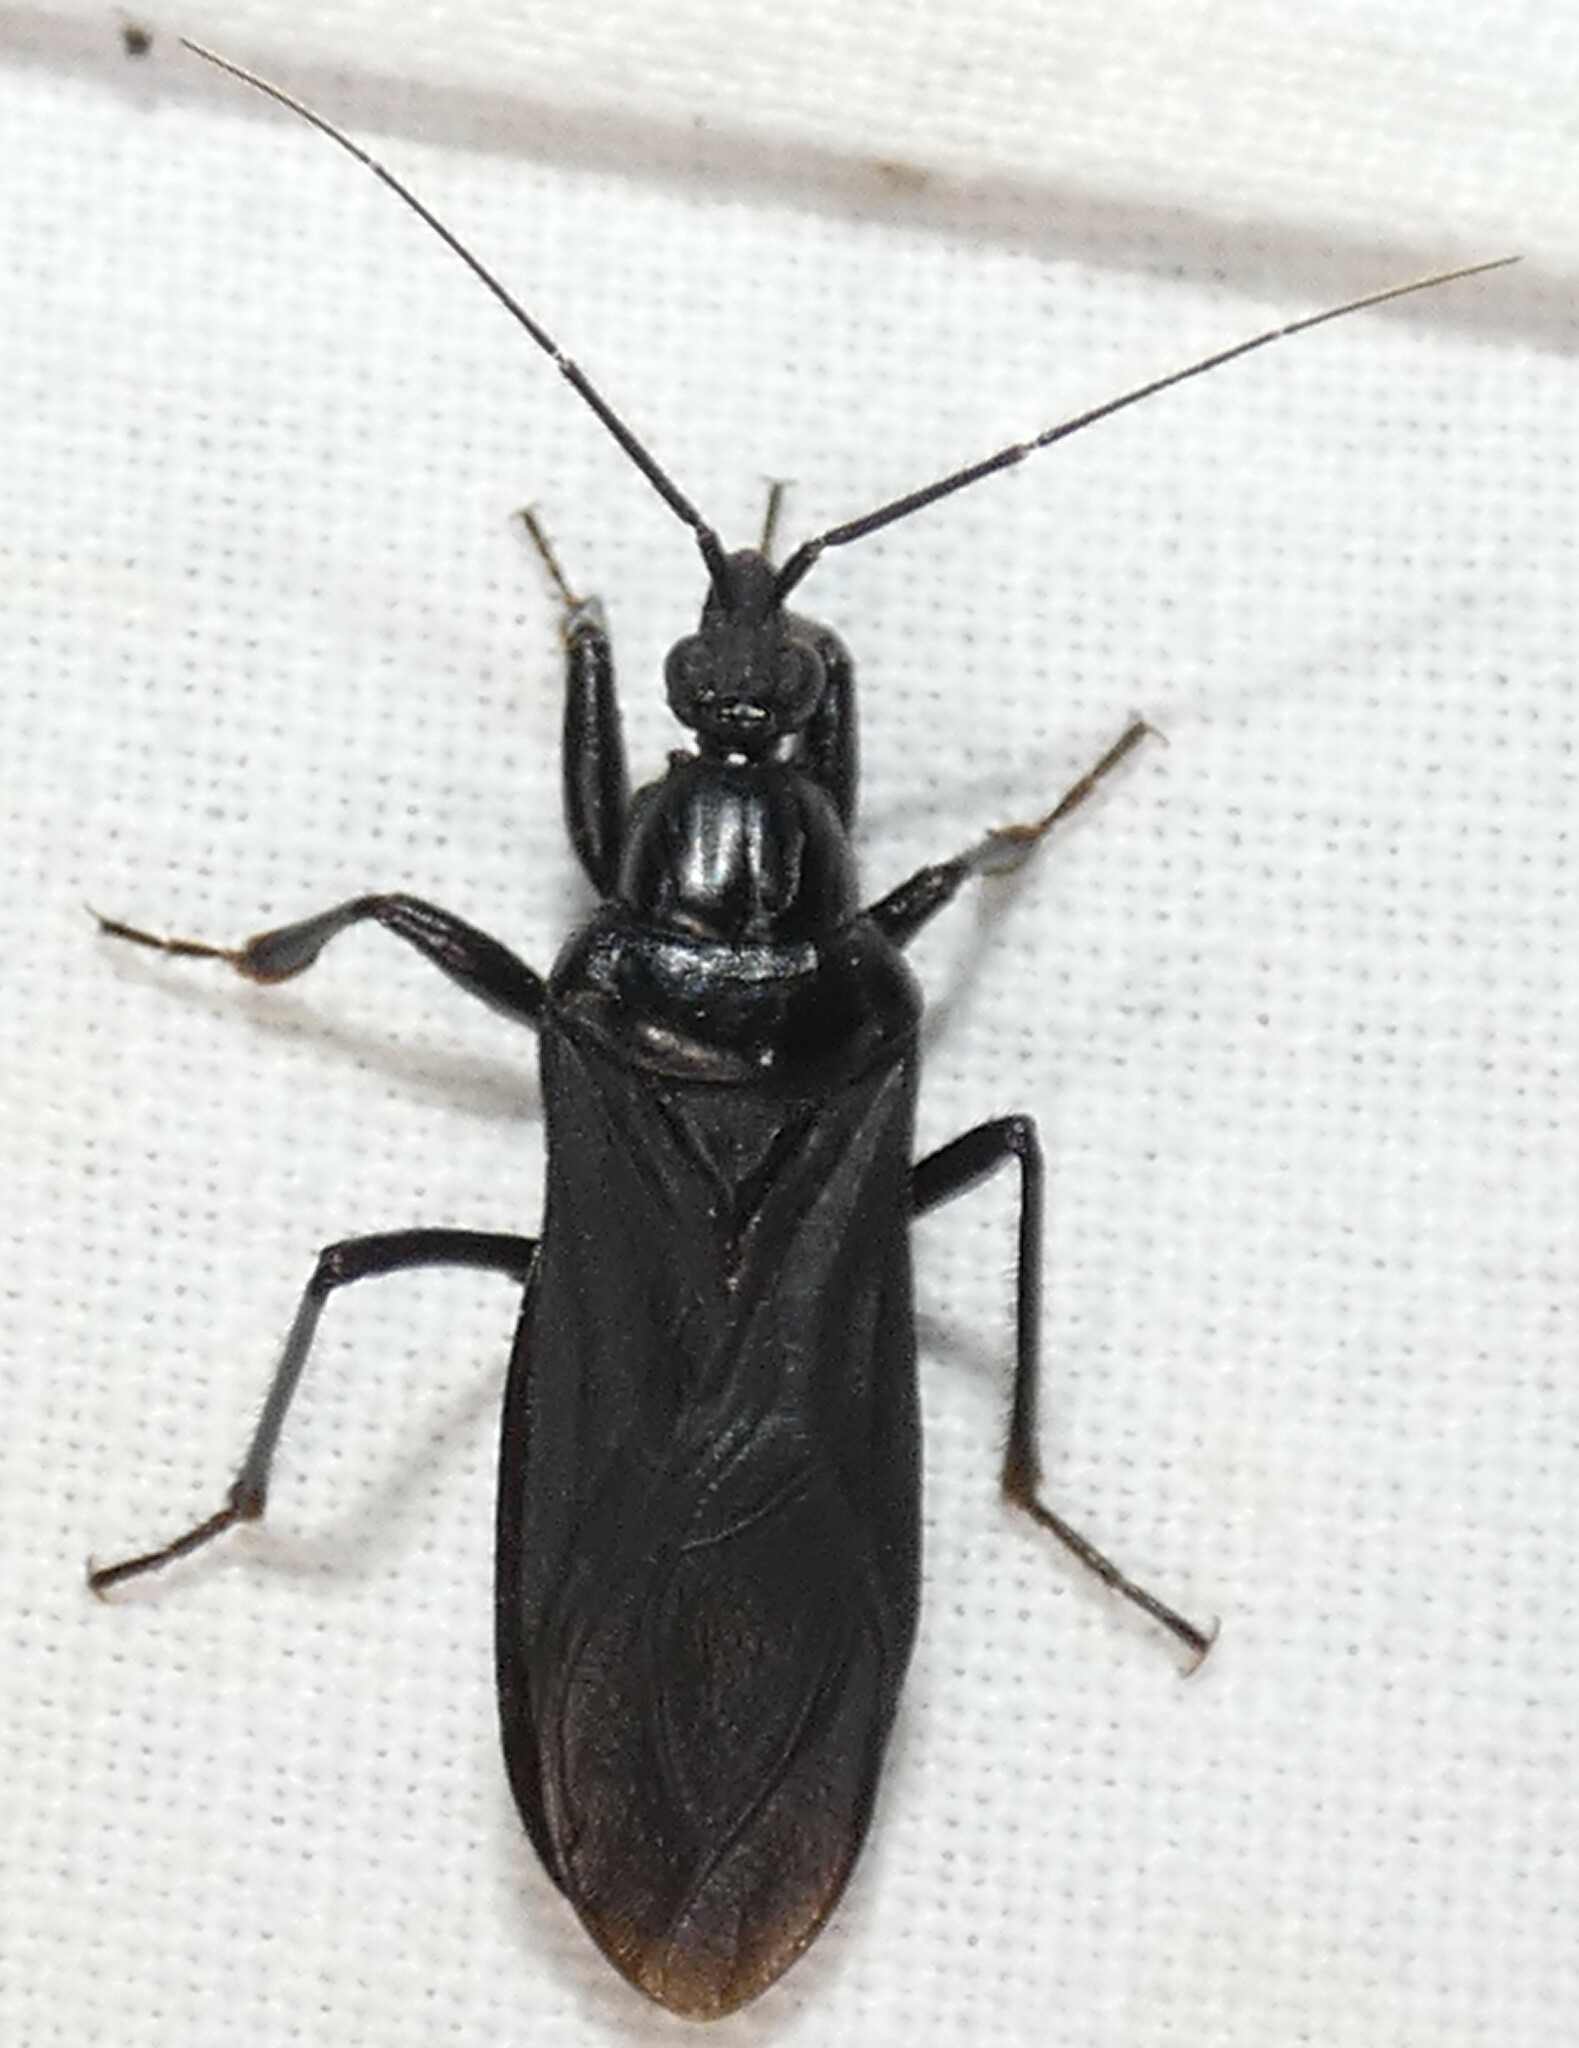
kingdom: Animalia
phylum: Arthropoda
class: Insecta
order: Hemiptera
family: Reduviidae
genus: Melanolestes
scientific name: Melanolestes picipes
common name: Assassin bug
